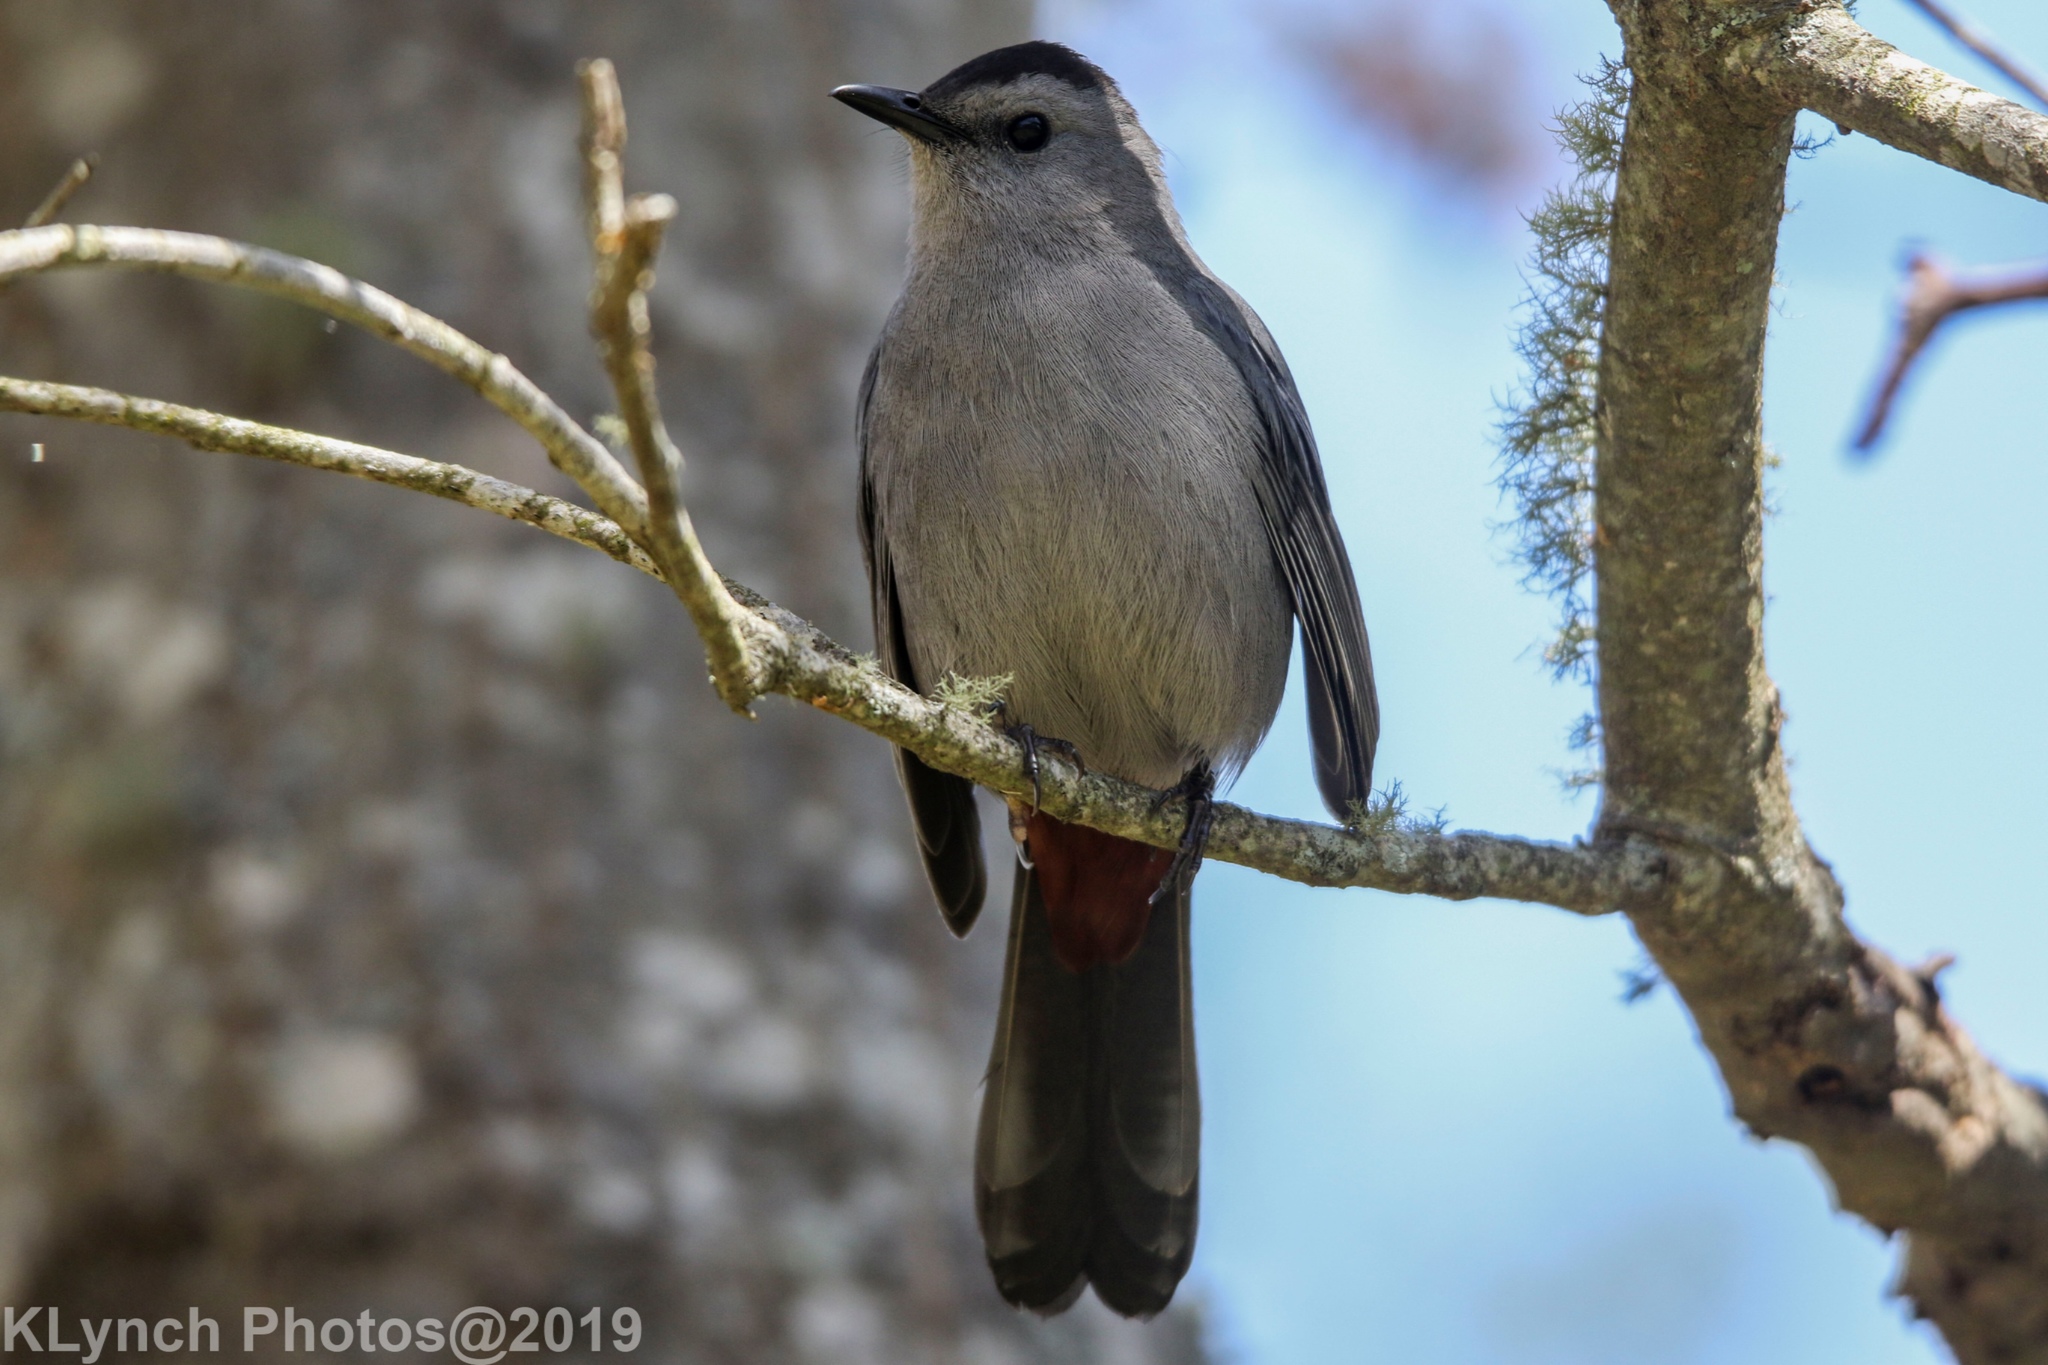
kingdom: Animalia
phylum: Chordata
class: Aves
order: Passeriformes
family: Mimidae
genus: Dumetella
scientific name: Dumetella carolinensis
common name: Gray catbird
